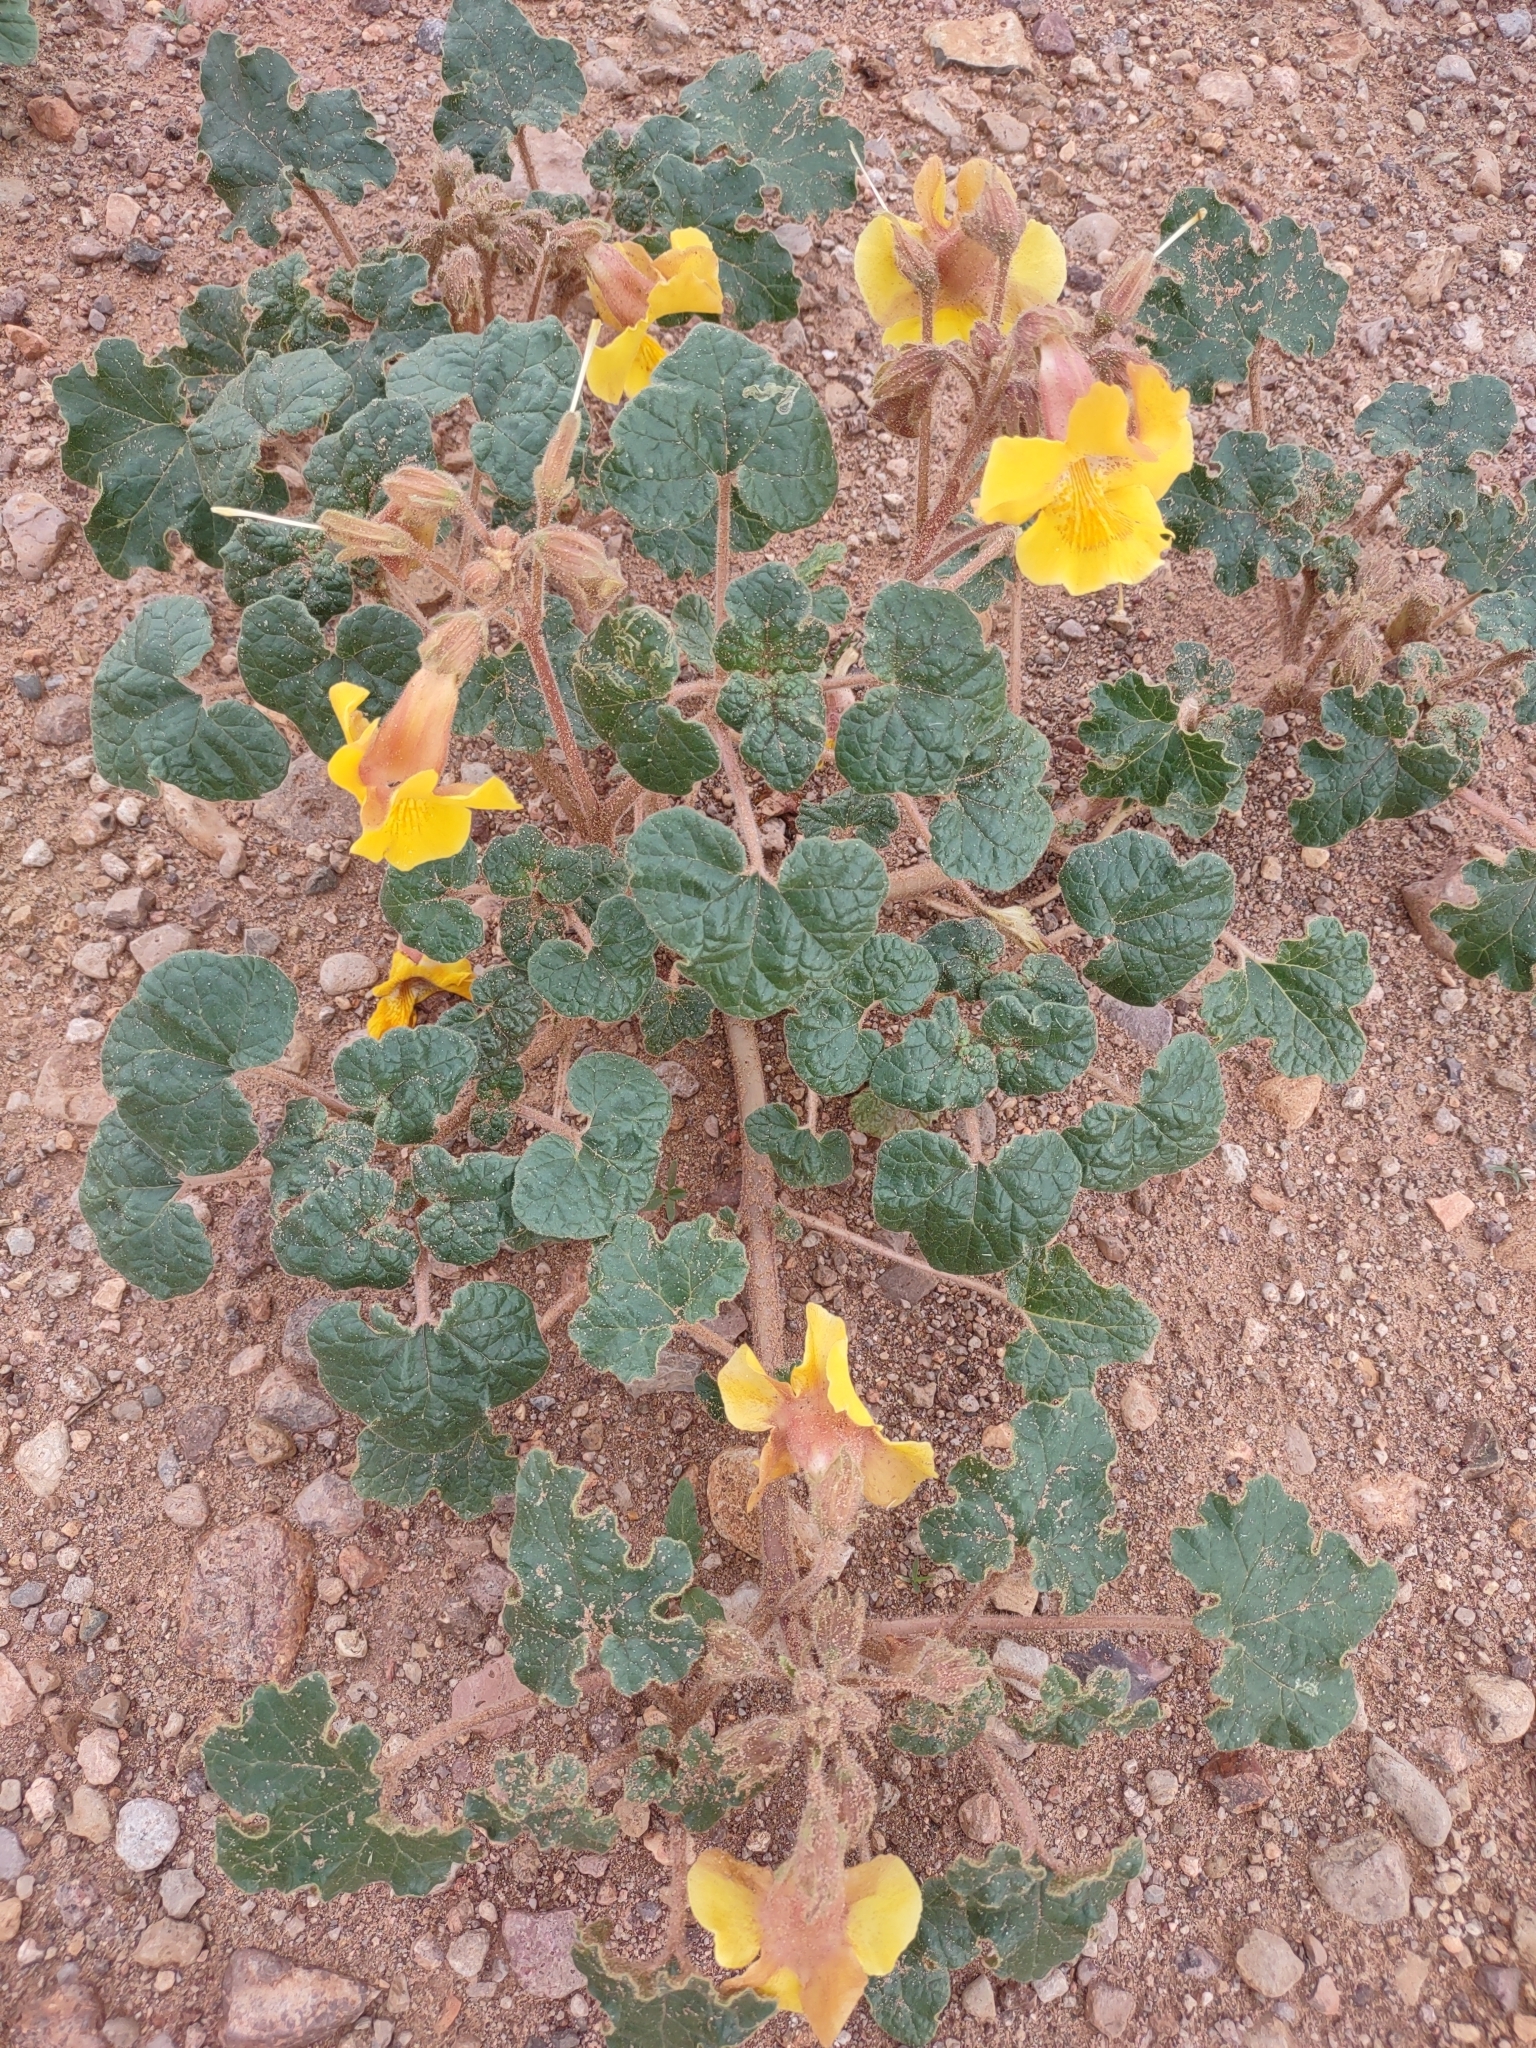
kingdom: Plantae
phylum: Tracheophyta
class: Magnoliopsida
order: Lamiales
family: Martyniaceae
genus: Proboscidea
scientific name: Proboscidea althaeifolia
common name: Desert unicorn-plant
